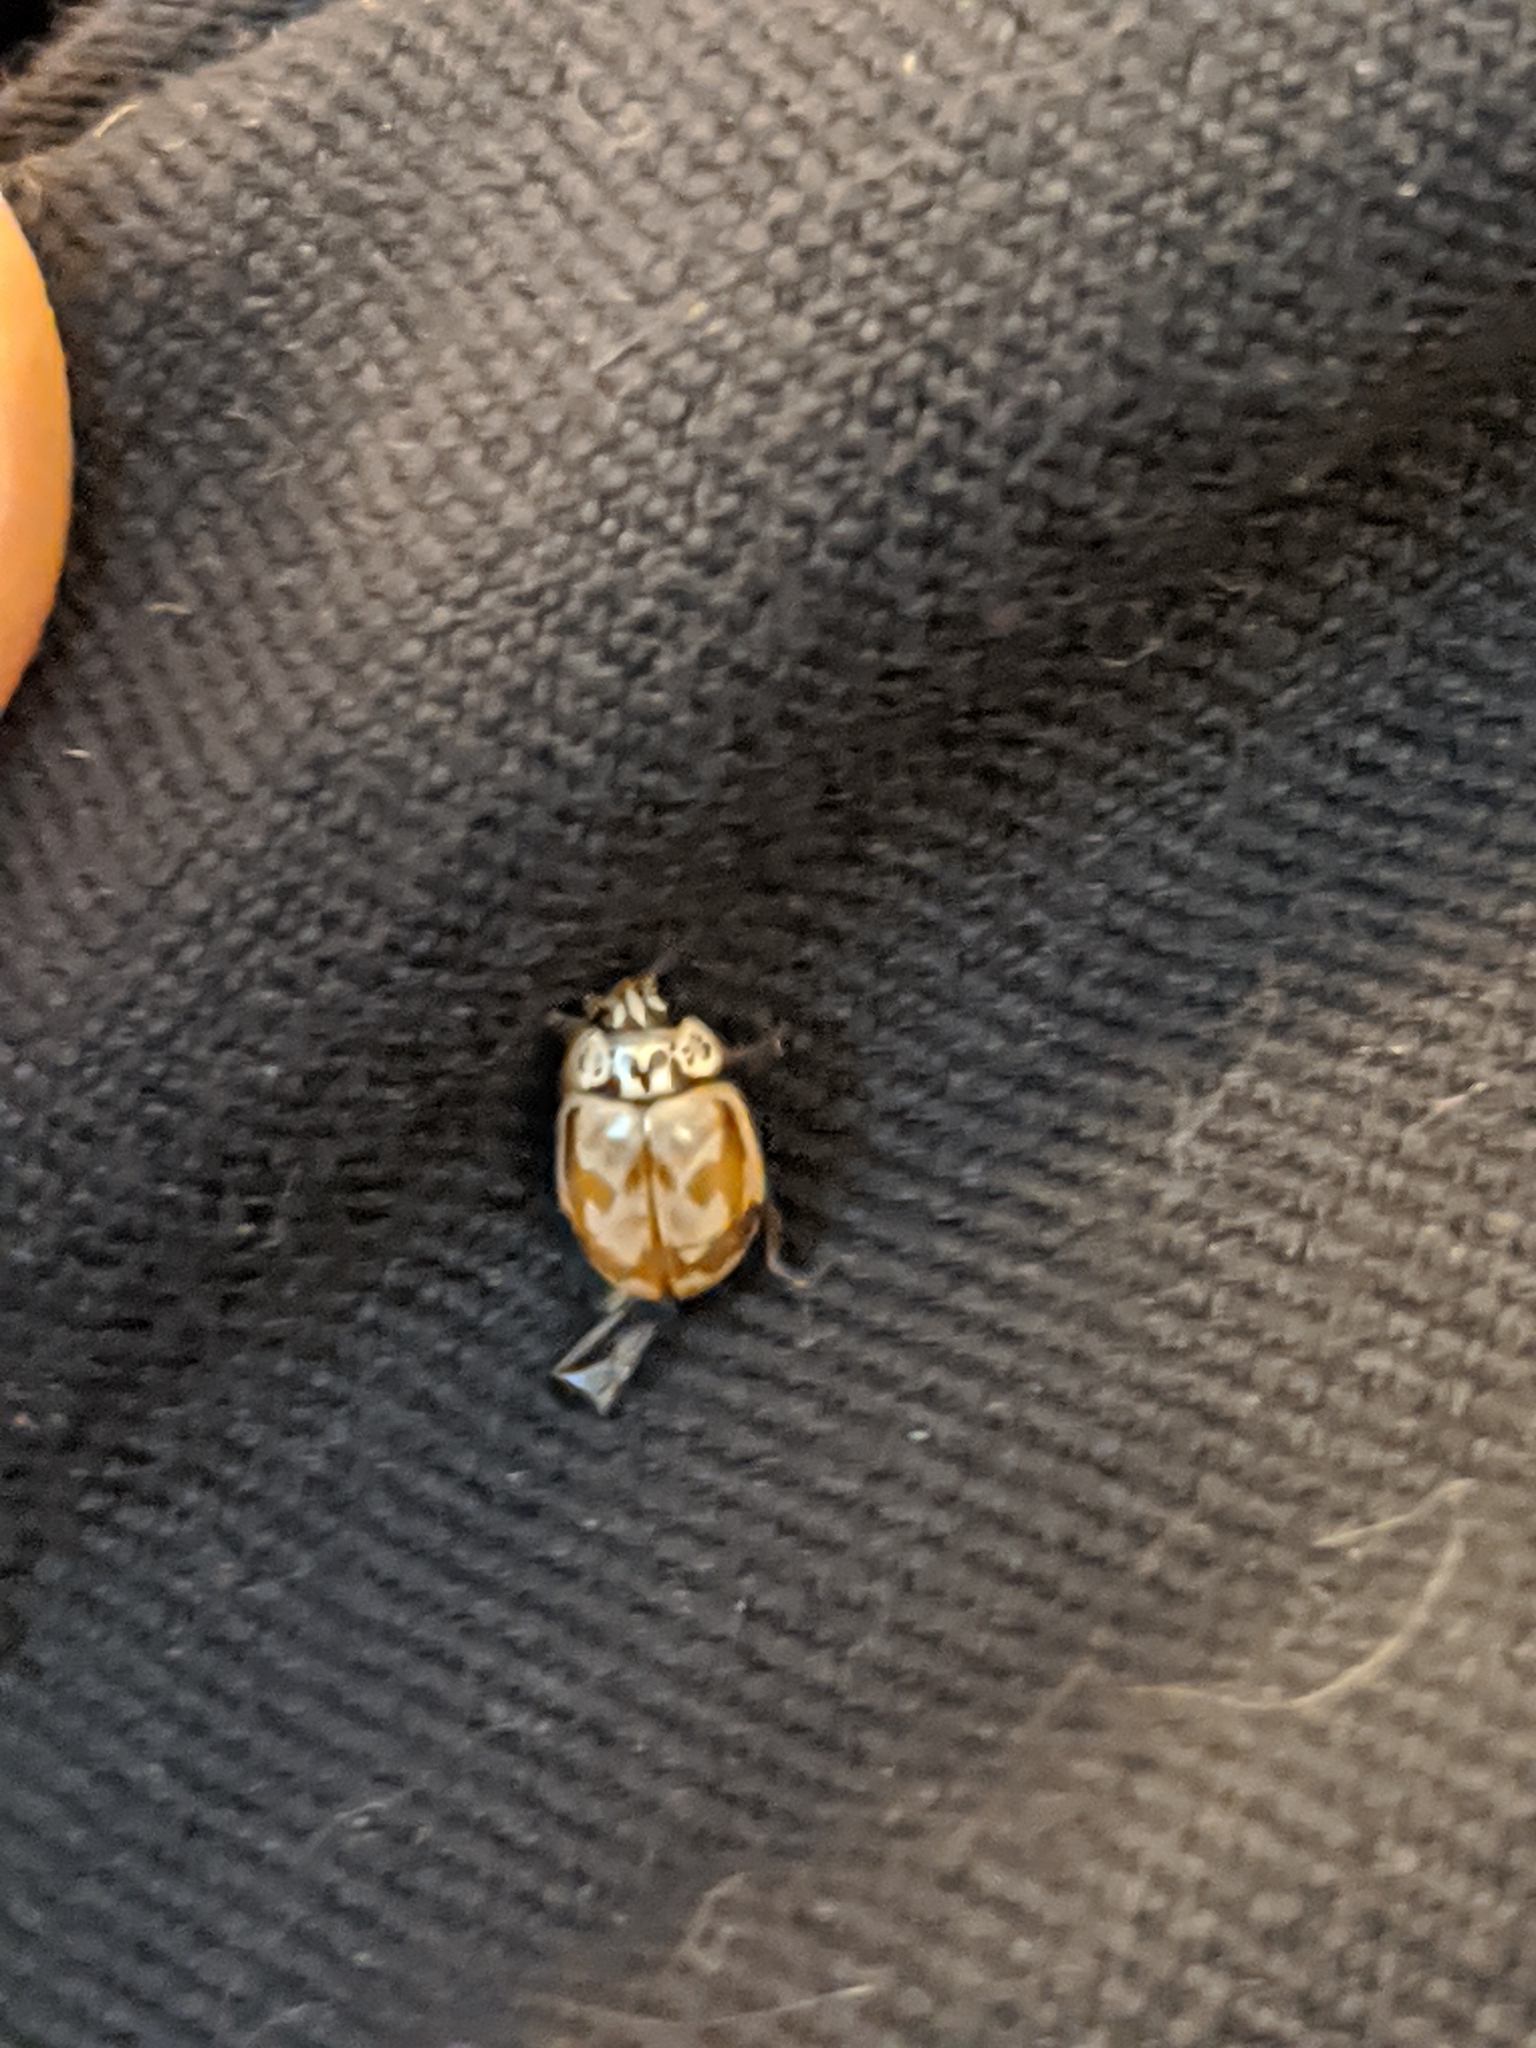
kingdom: Animalia
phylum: Arthropoda
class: Insecta
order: Coleoptera
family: Coccinellidae
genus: Mulsantina
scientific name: Mulsantina picta
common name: Painted ladybird
